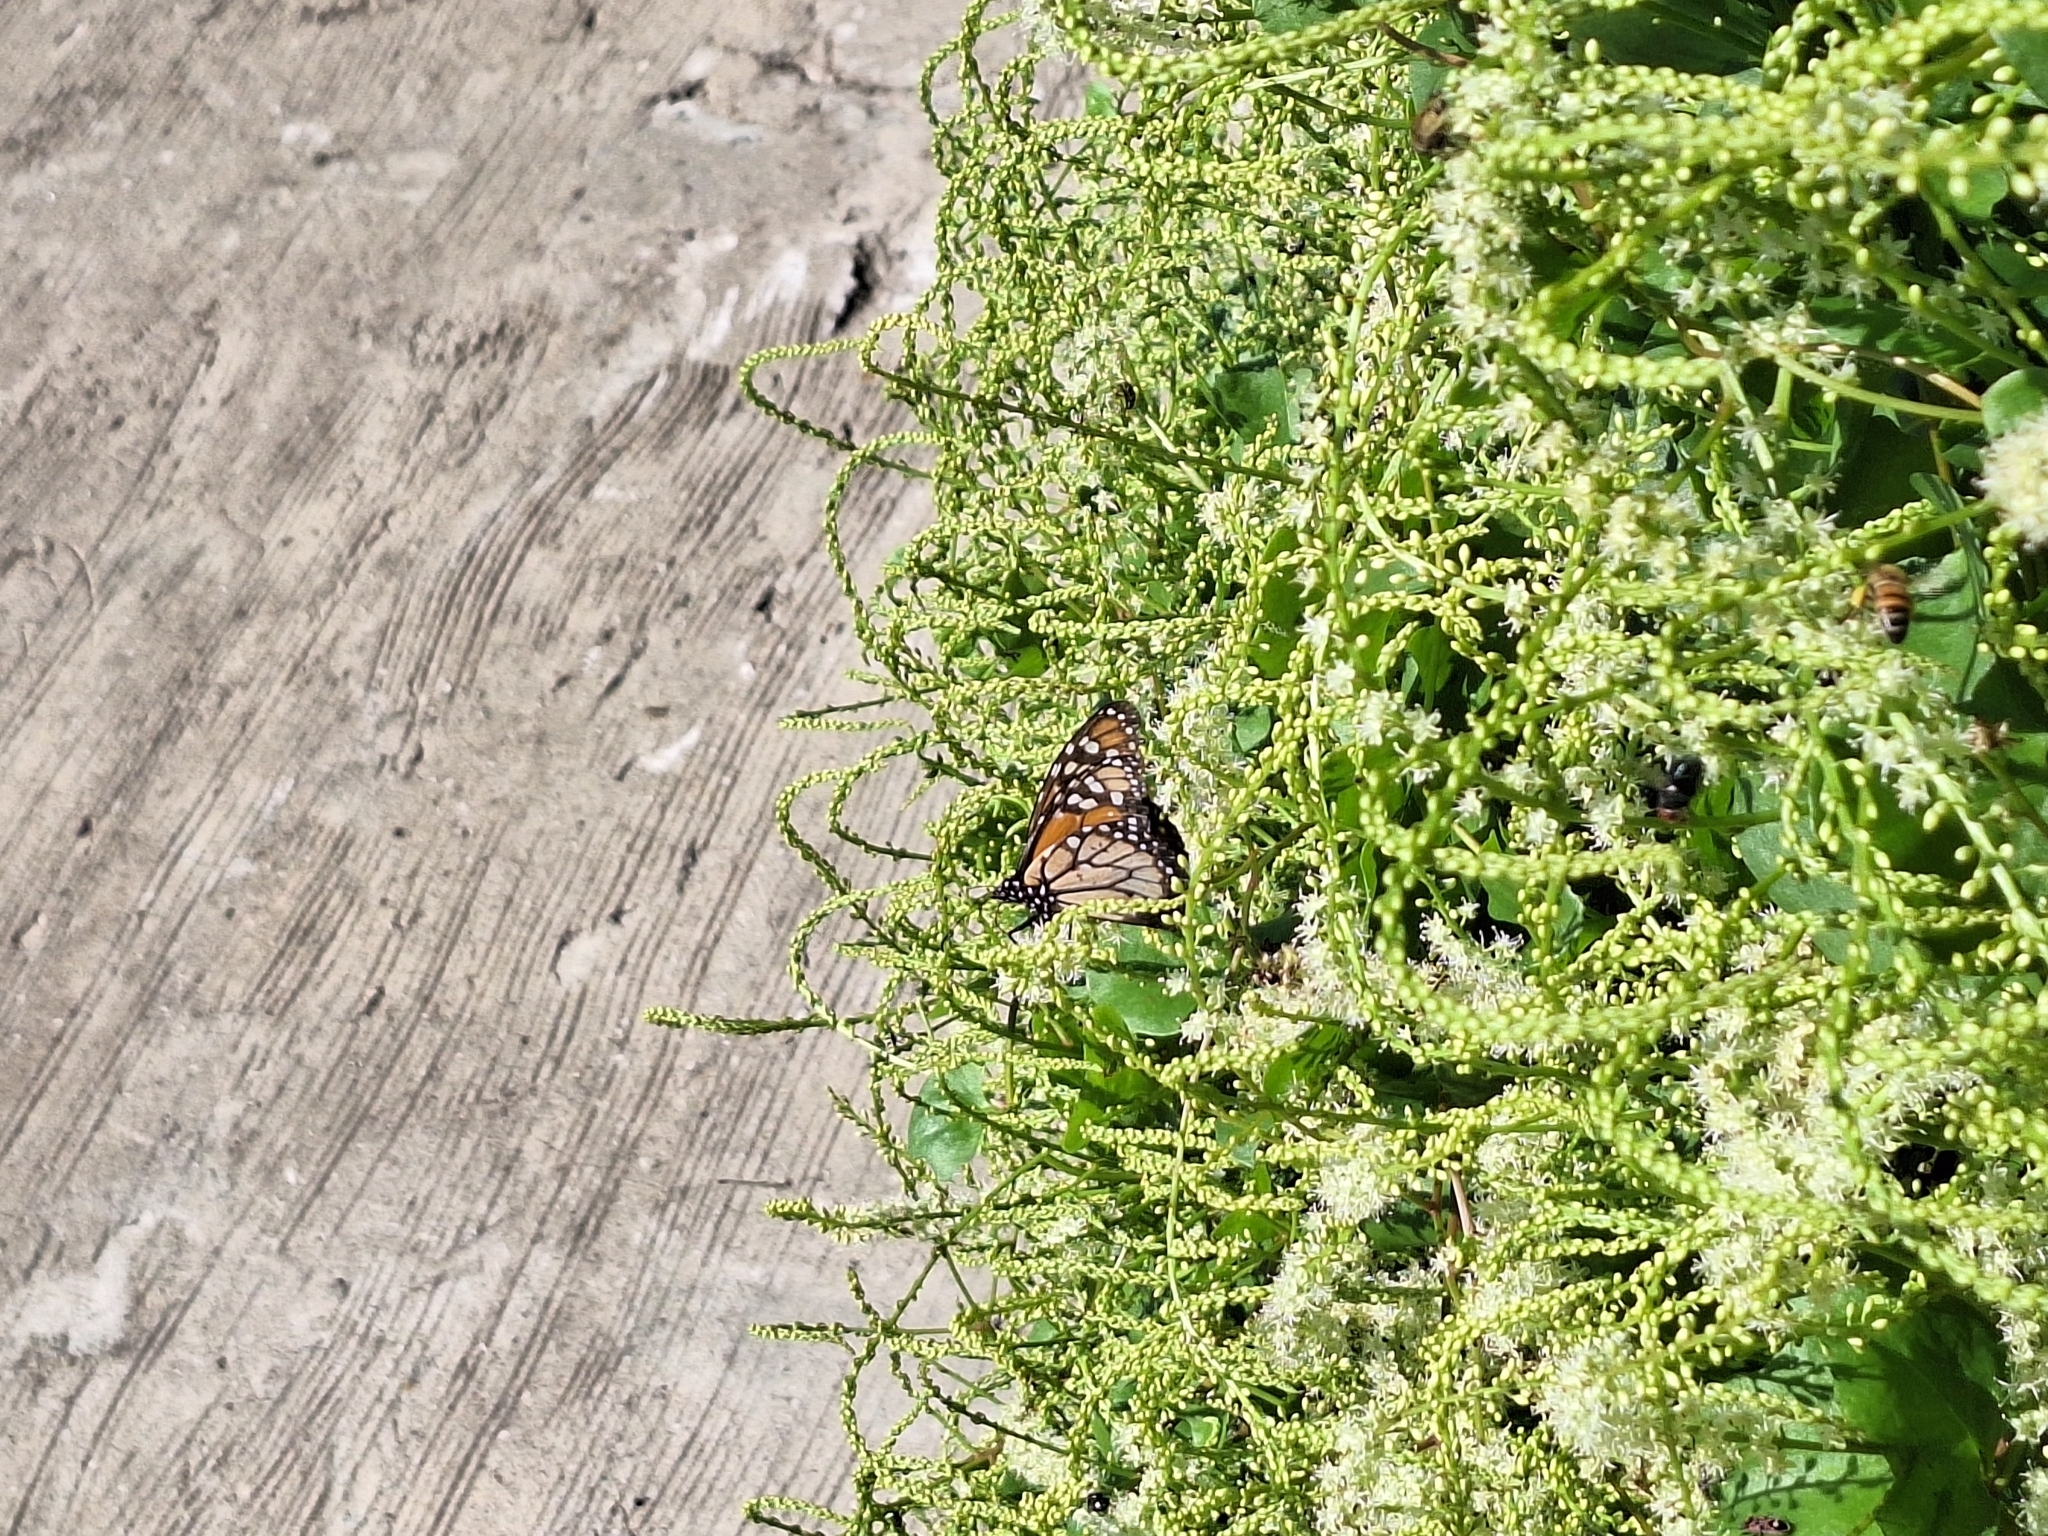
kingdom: Animalia
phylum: Arthropoda
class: Insecta
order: Lepidoptera
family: Nymphalidae
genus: Danaus
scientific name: Danaus erippus
